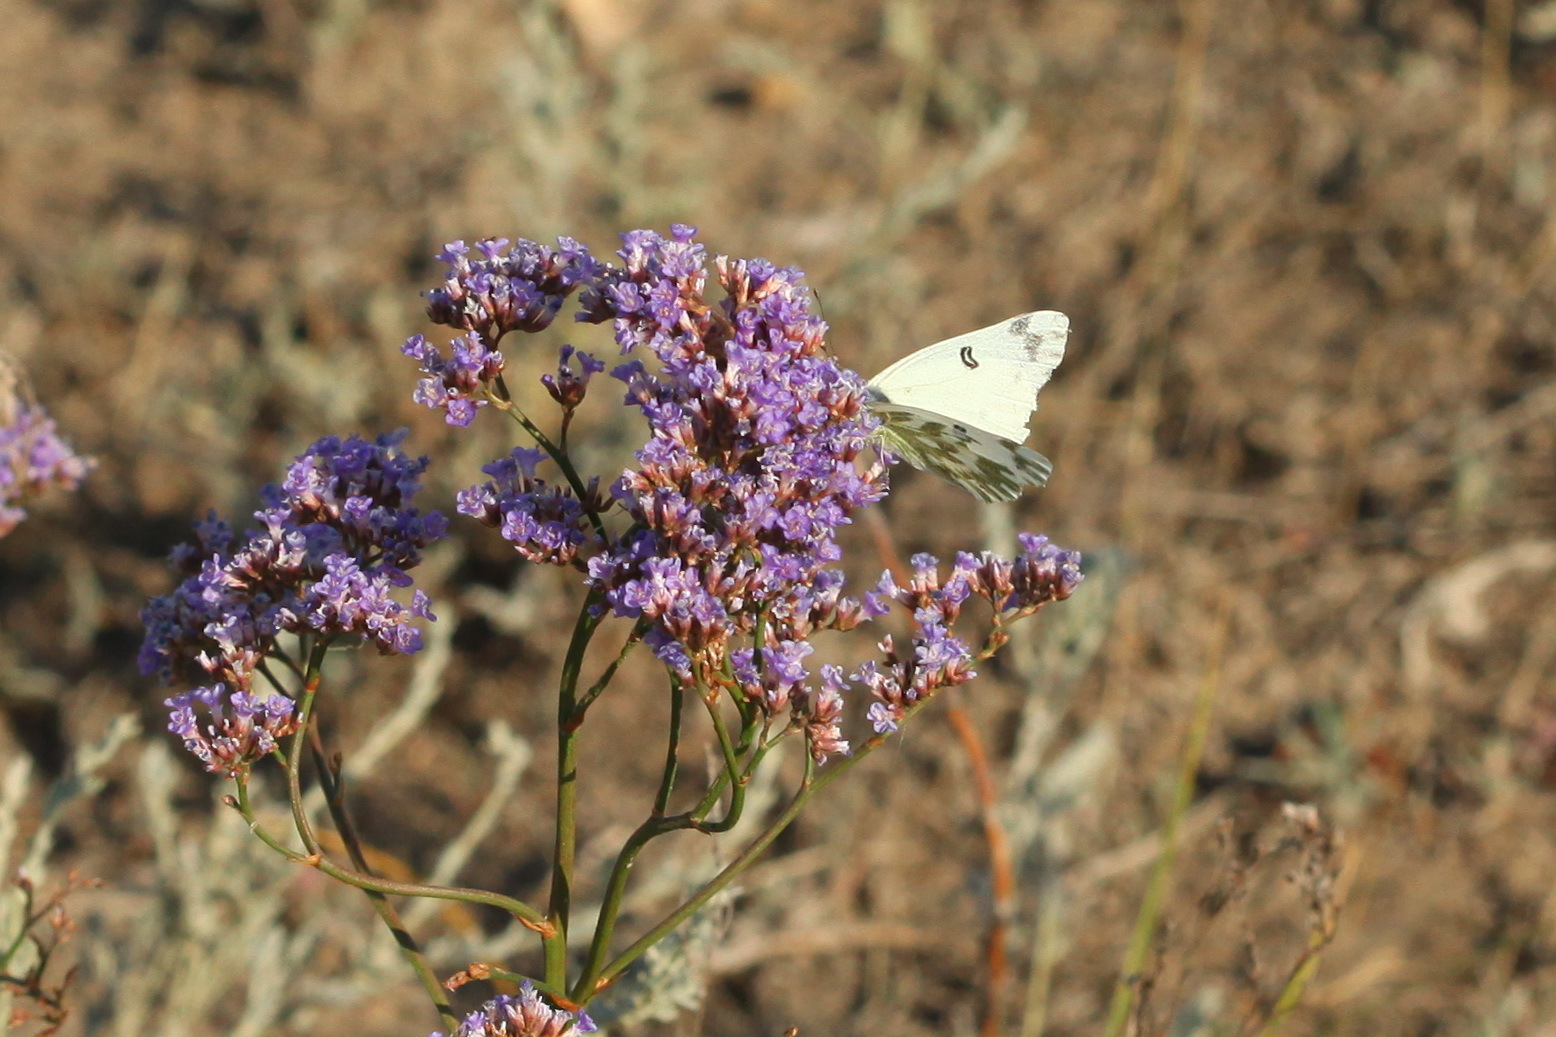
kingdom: Animalia
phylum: Arthropoda
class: Insecta
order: Lepidoptera
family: Pieridae
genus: Pontia
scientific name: Pontia chloridice
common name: Small bath white
